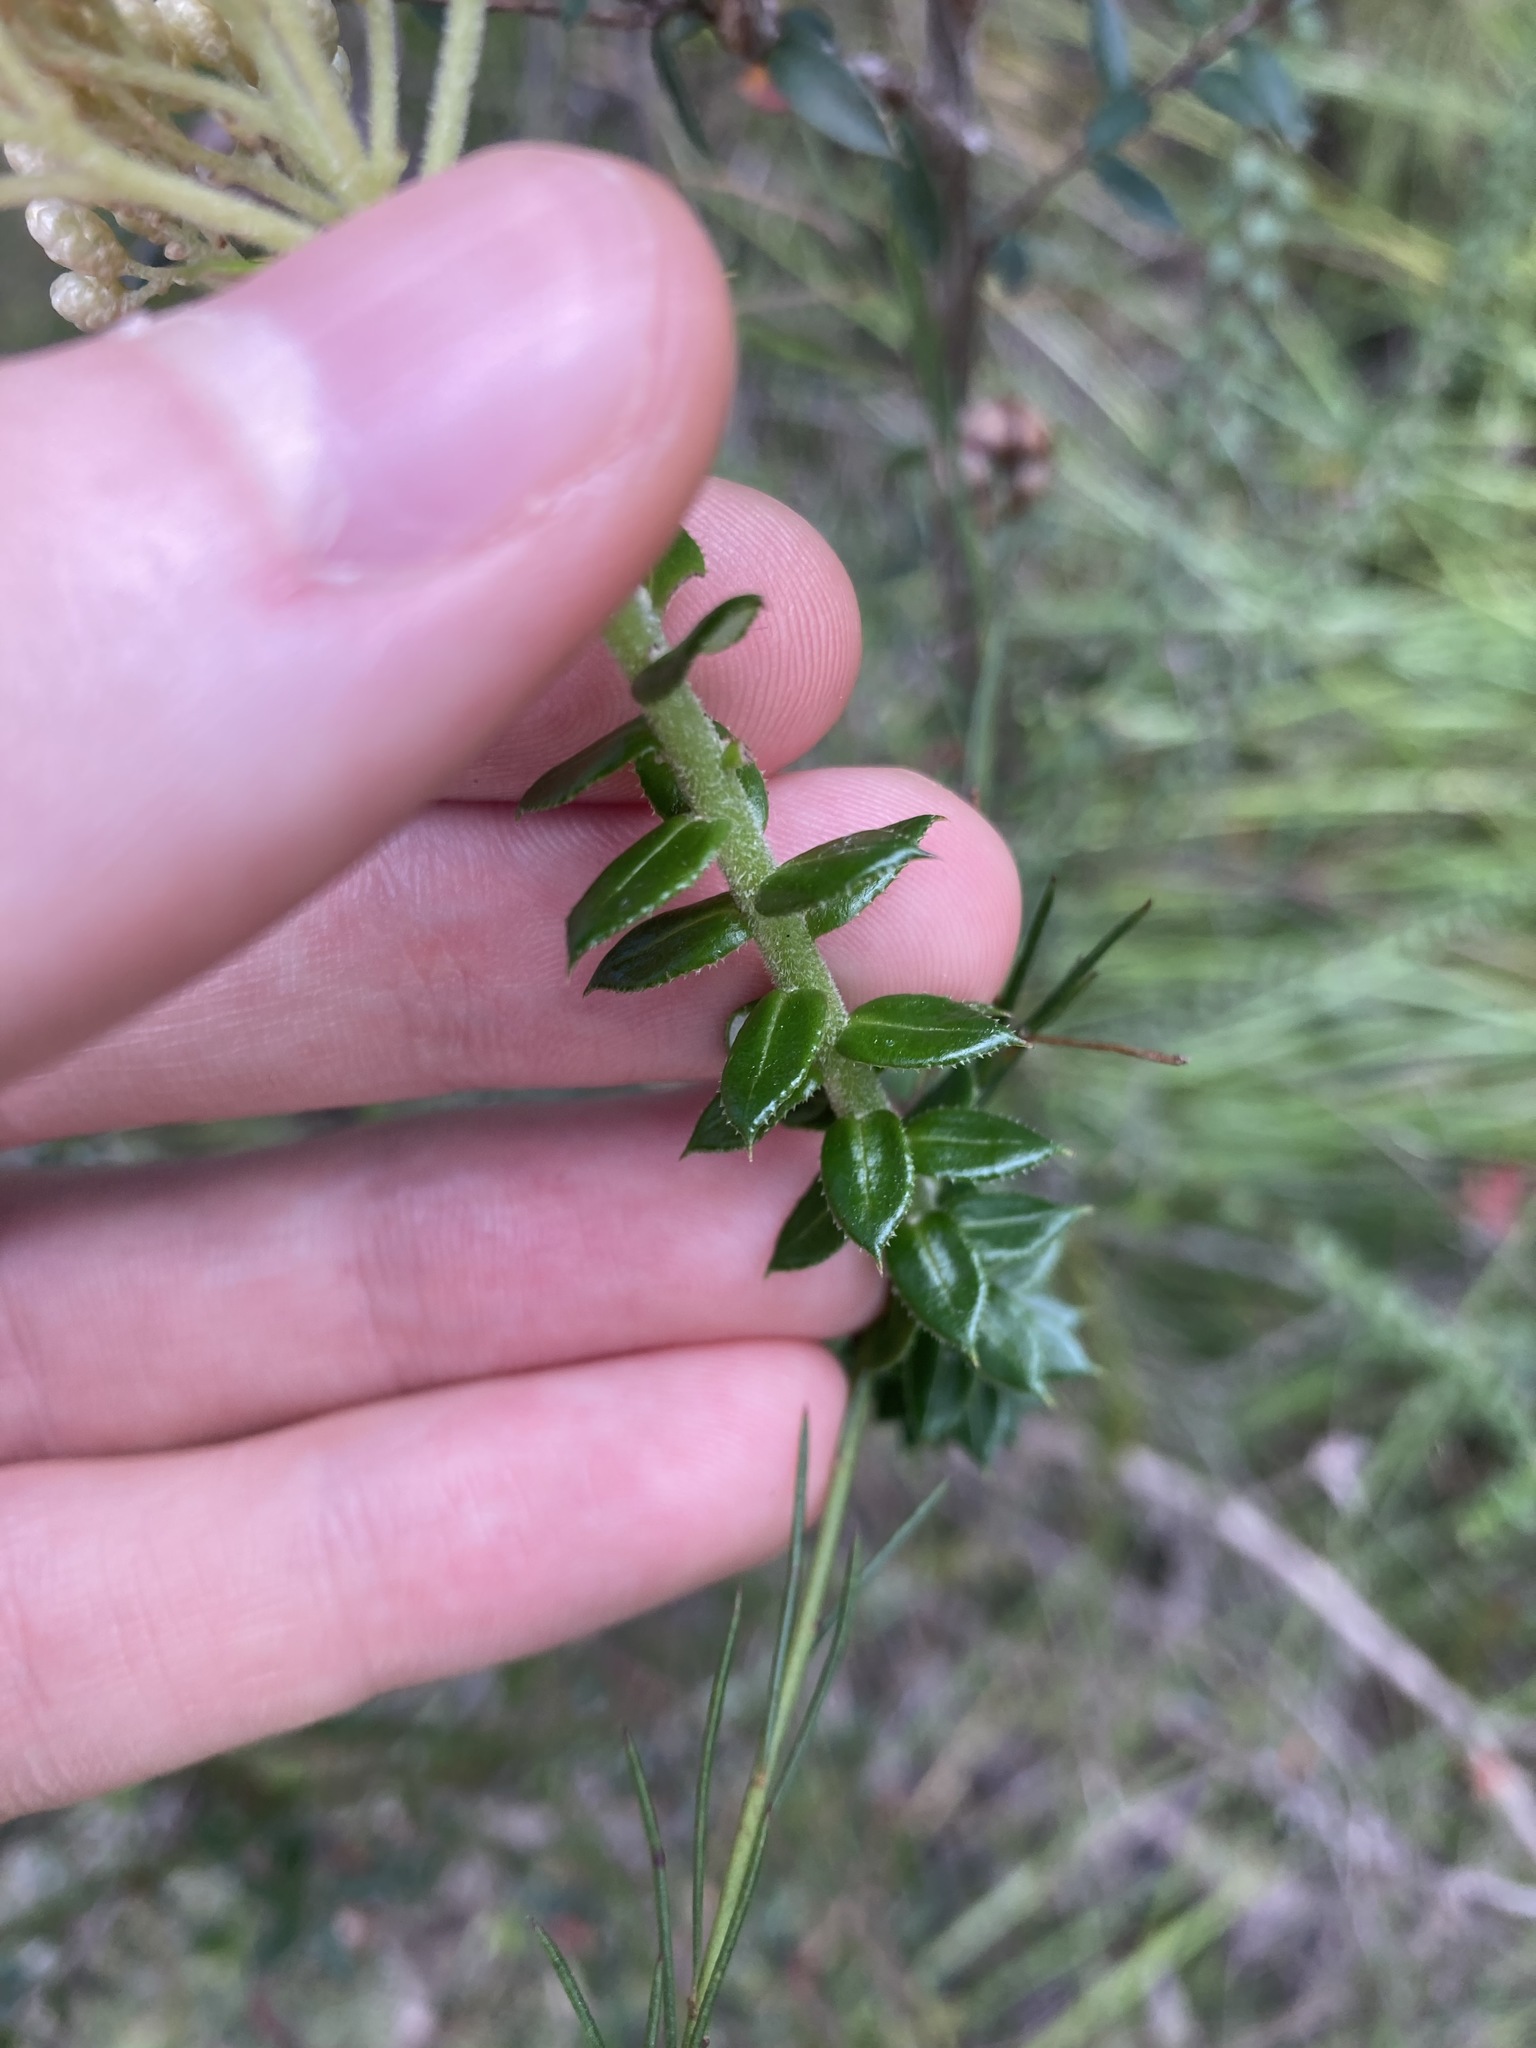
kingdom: Plantae
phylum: Tracheophyta
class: Magnoliopsida
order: Asterales
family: Asteraceae
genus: Cassinia
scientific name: Cassinia denticulata
